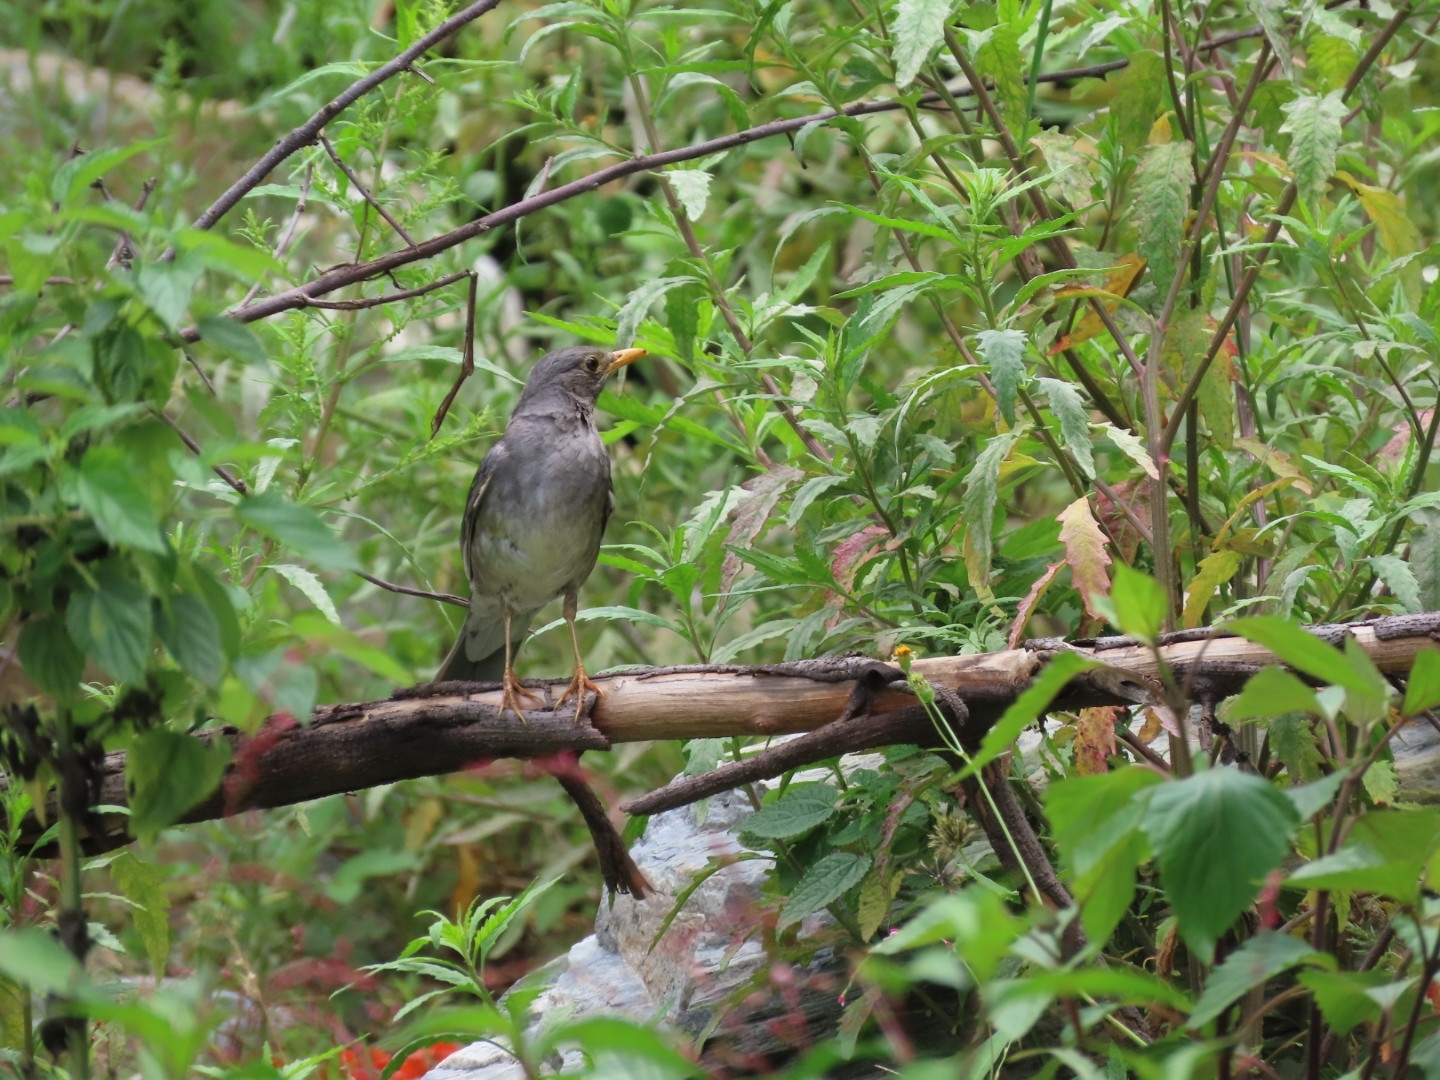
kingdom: Animalia
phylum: Chordata
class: Aves
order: Passeriformes
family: Turdidae
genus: Turdus
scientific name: Turdus unicolor
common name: Tickell's thrush
